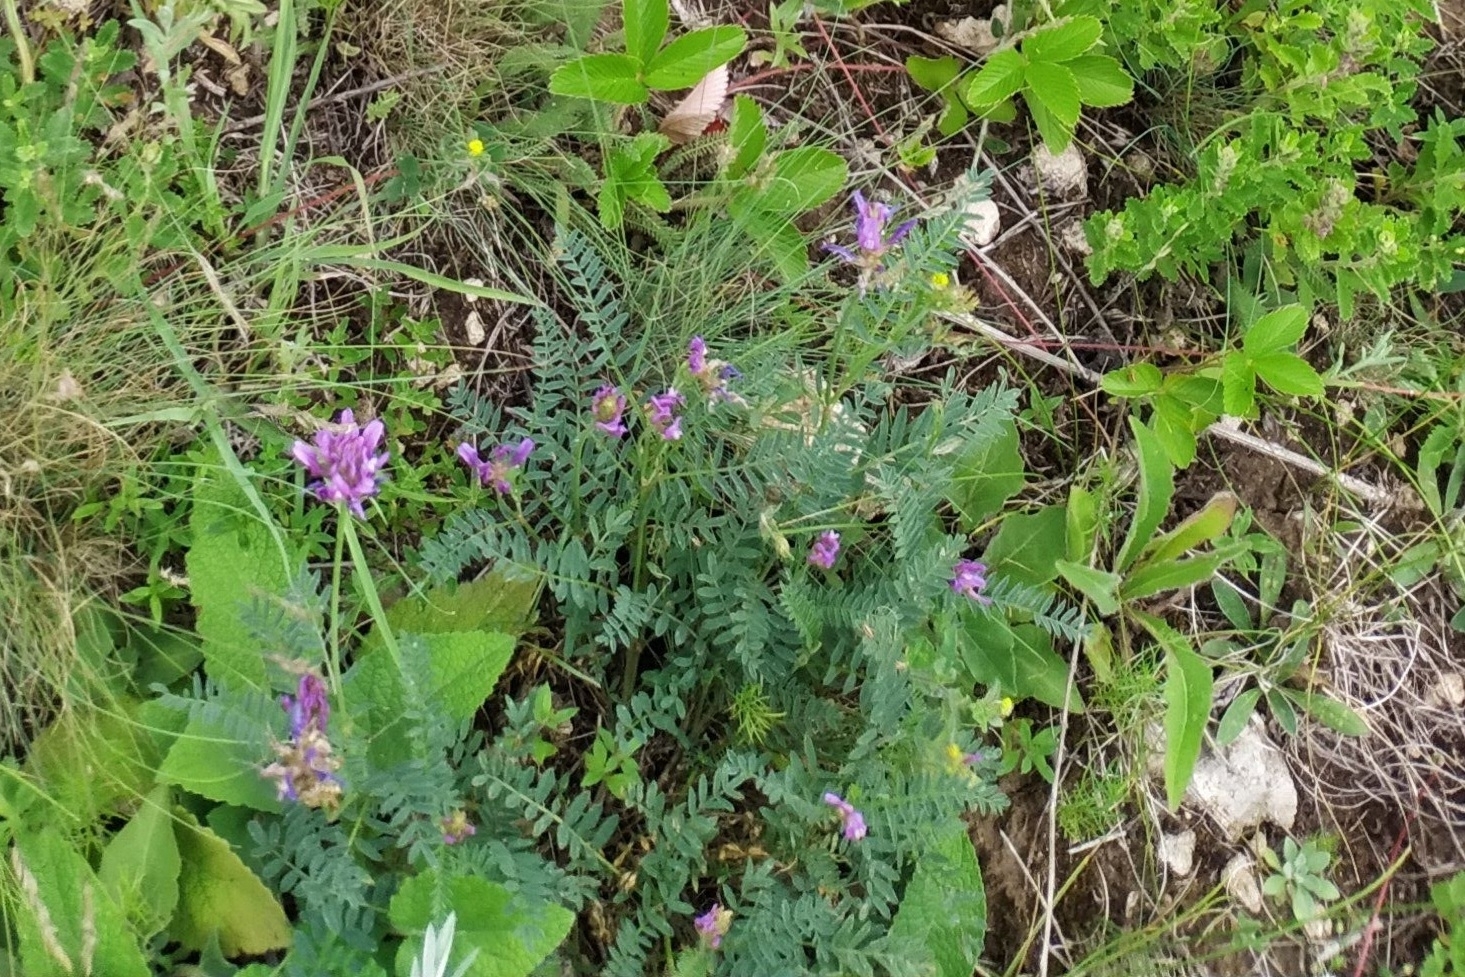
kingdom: Plantae
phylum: Tracheophyta
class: Magnoliopsida
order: Fabales
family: Fabaceae
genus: Astragalus
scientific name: Astragalus onobrychis
